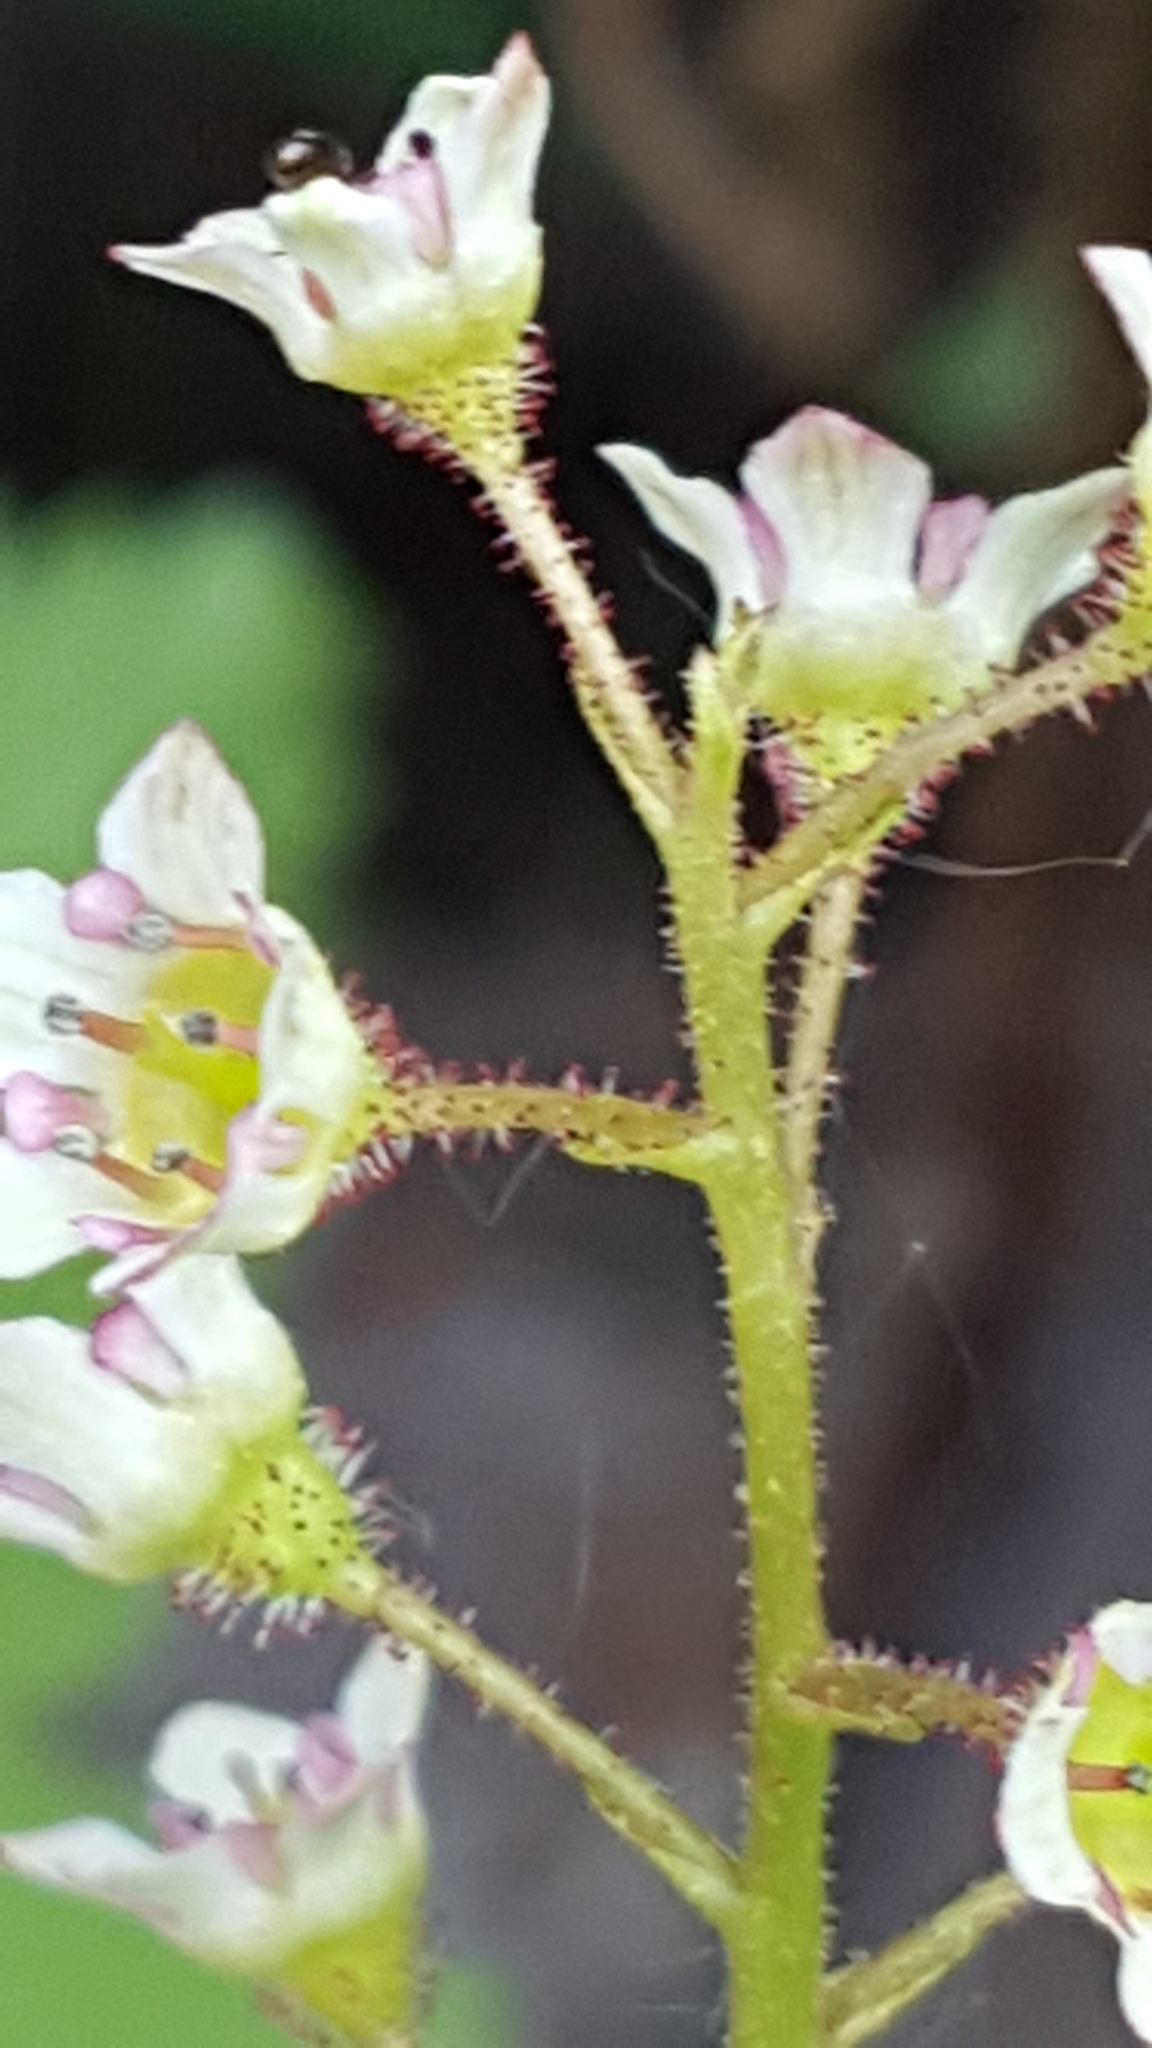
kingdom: Plantae
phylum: Tracheophyta
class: Magnoliopsida
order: Saxifragales
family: Grossulariaceae
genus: Ribes
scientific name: Ribes glandulosum
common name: Skunk currant
